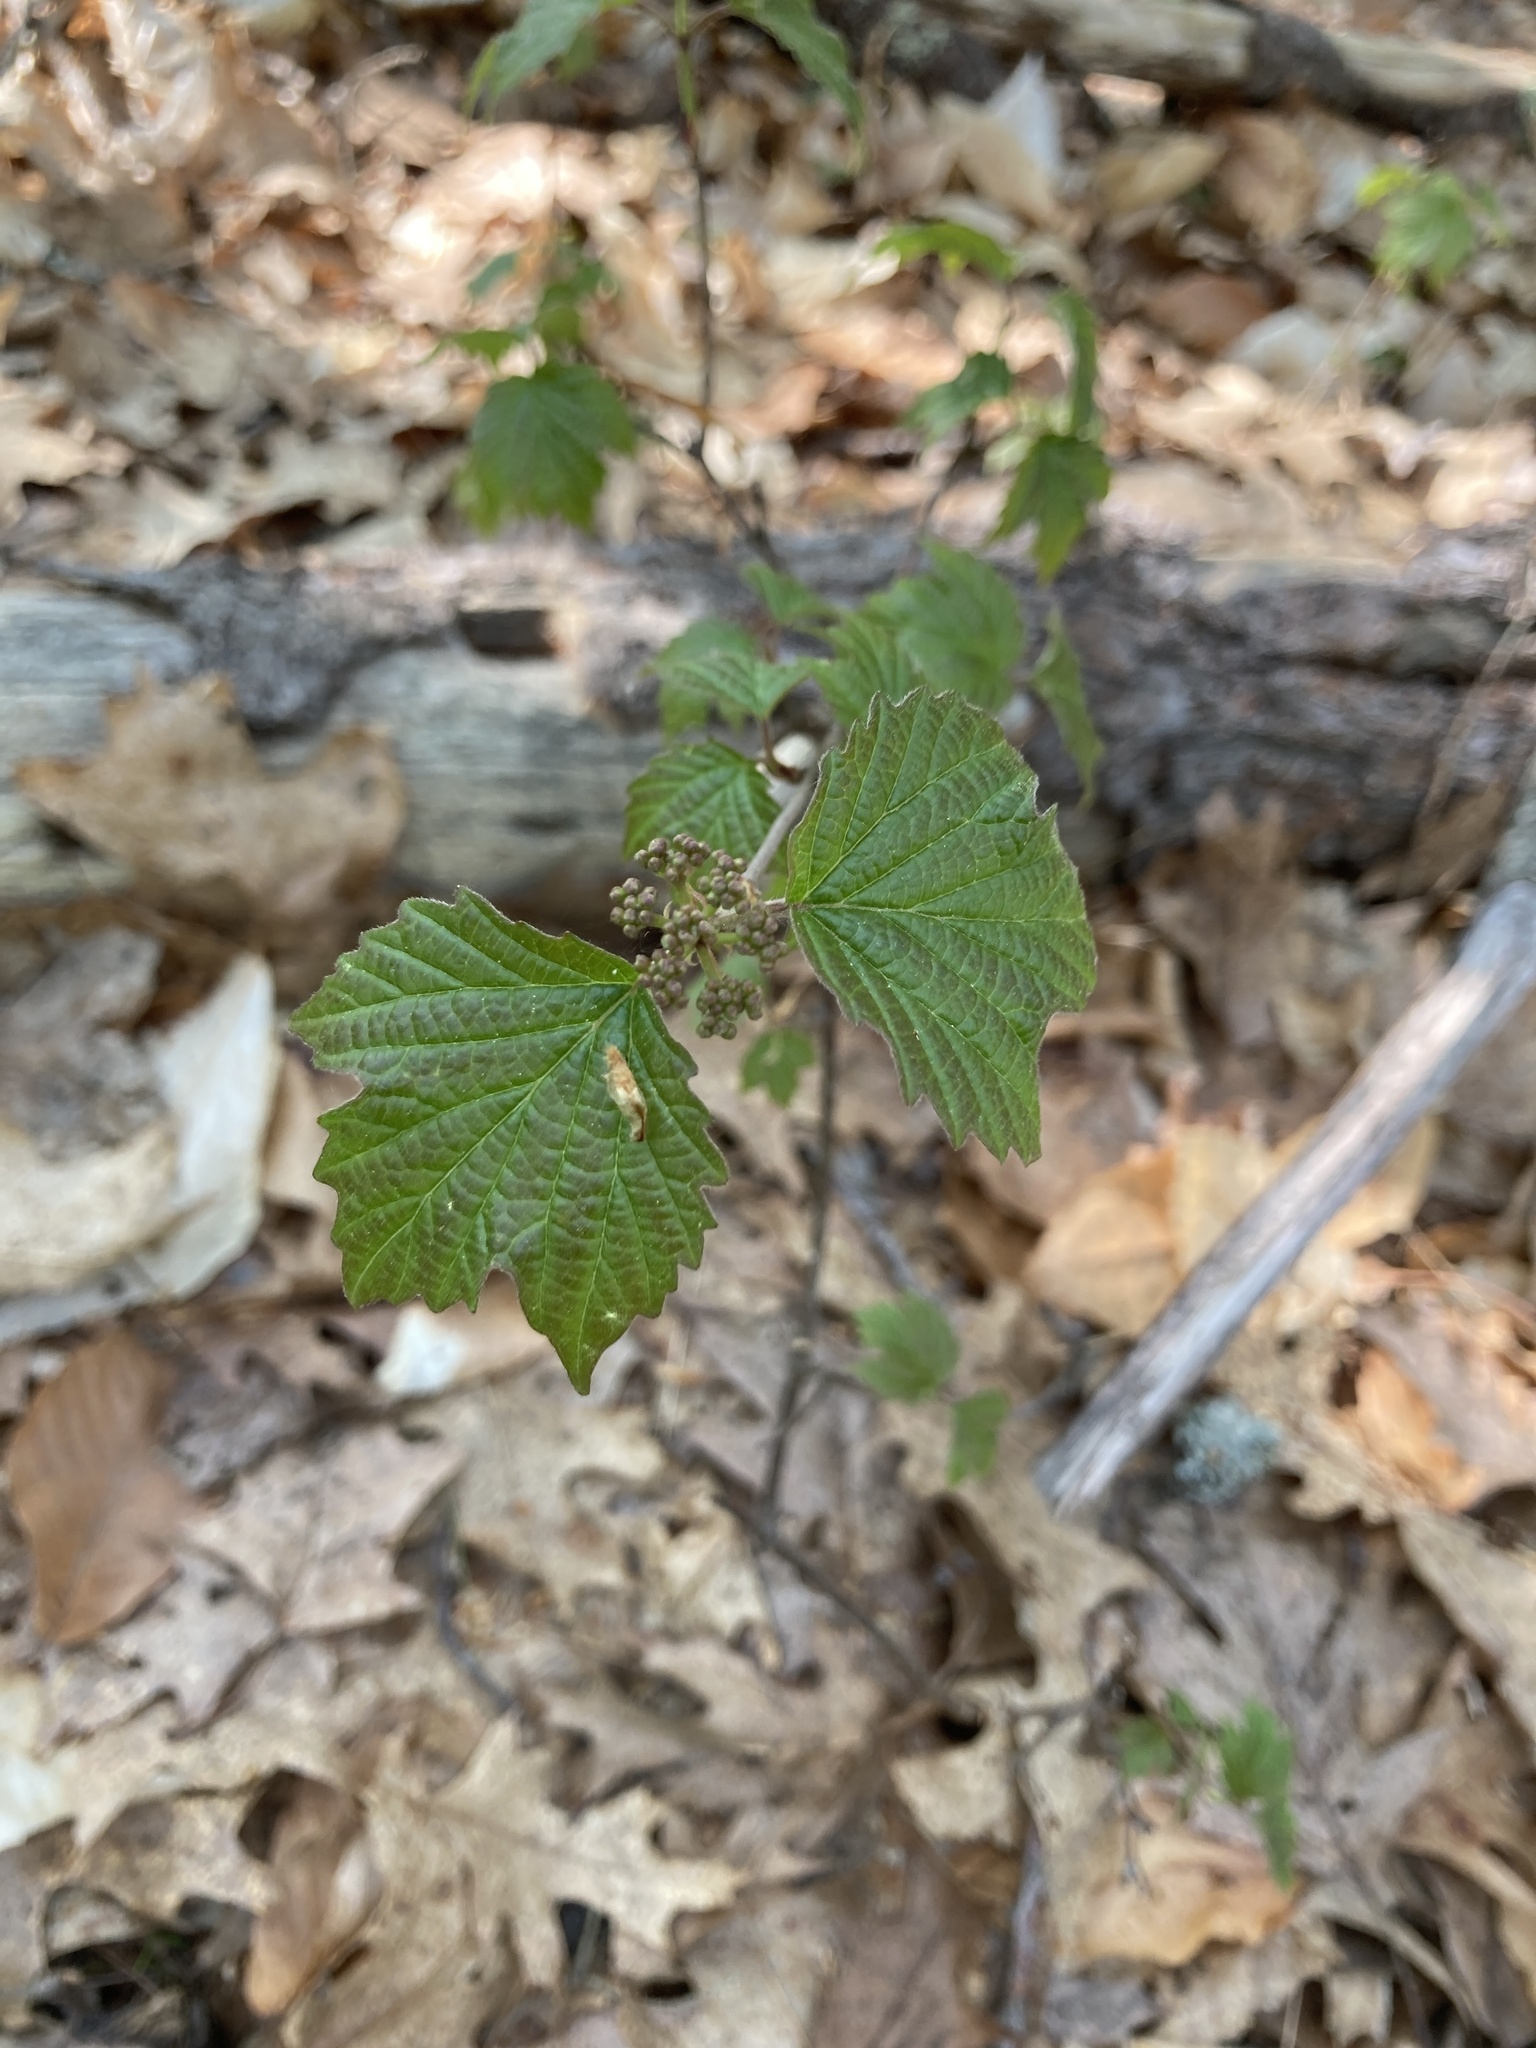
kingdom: Plantae
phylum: Tracheophyta
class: Magnoliopsida
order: Dipsacales
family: Viburnaceae
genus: Viburnum
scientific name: Viburnum acerifolium
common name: Dockmackie
